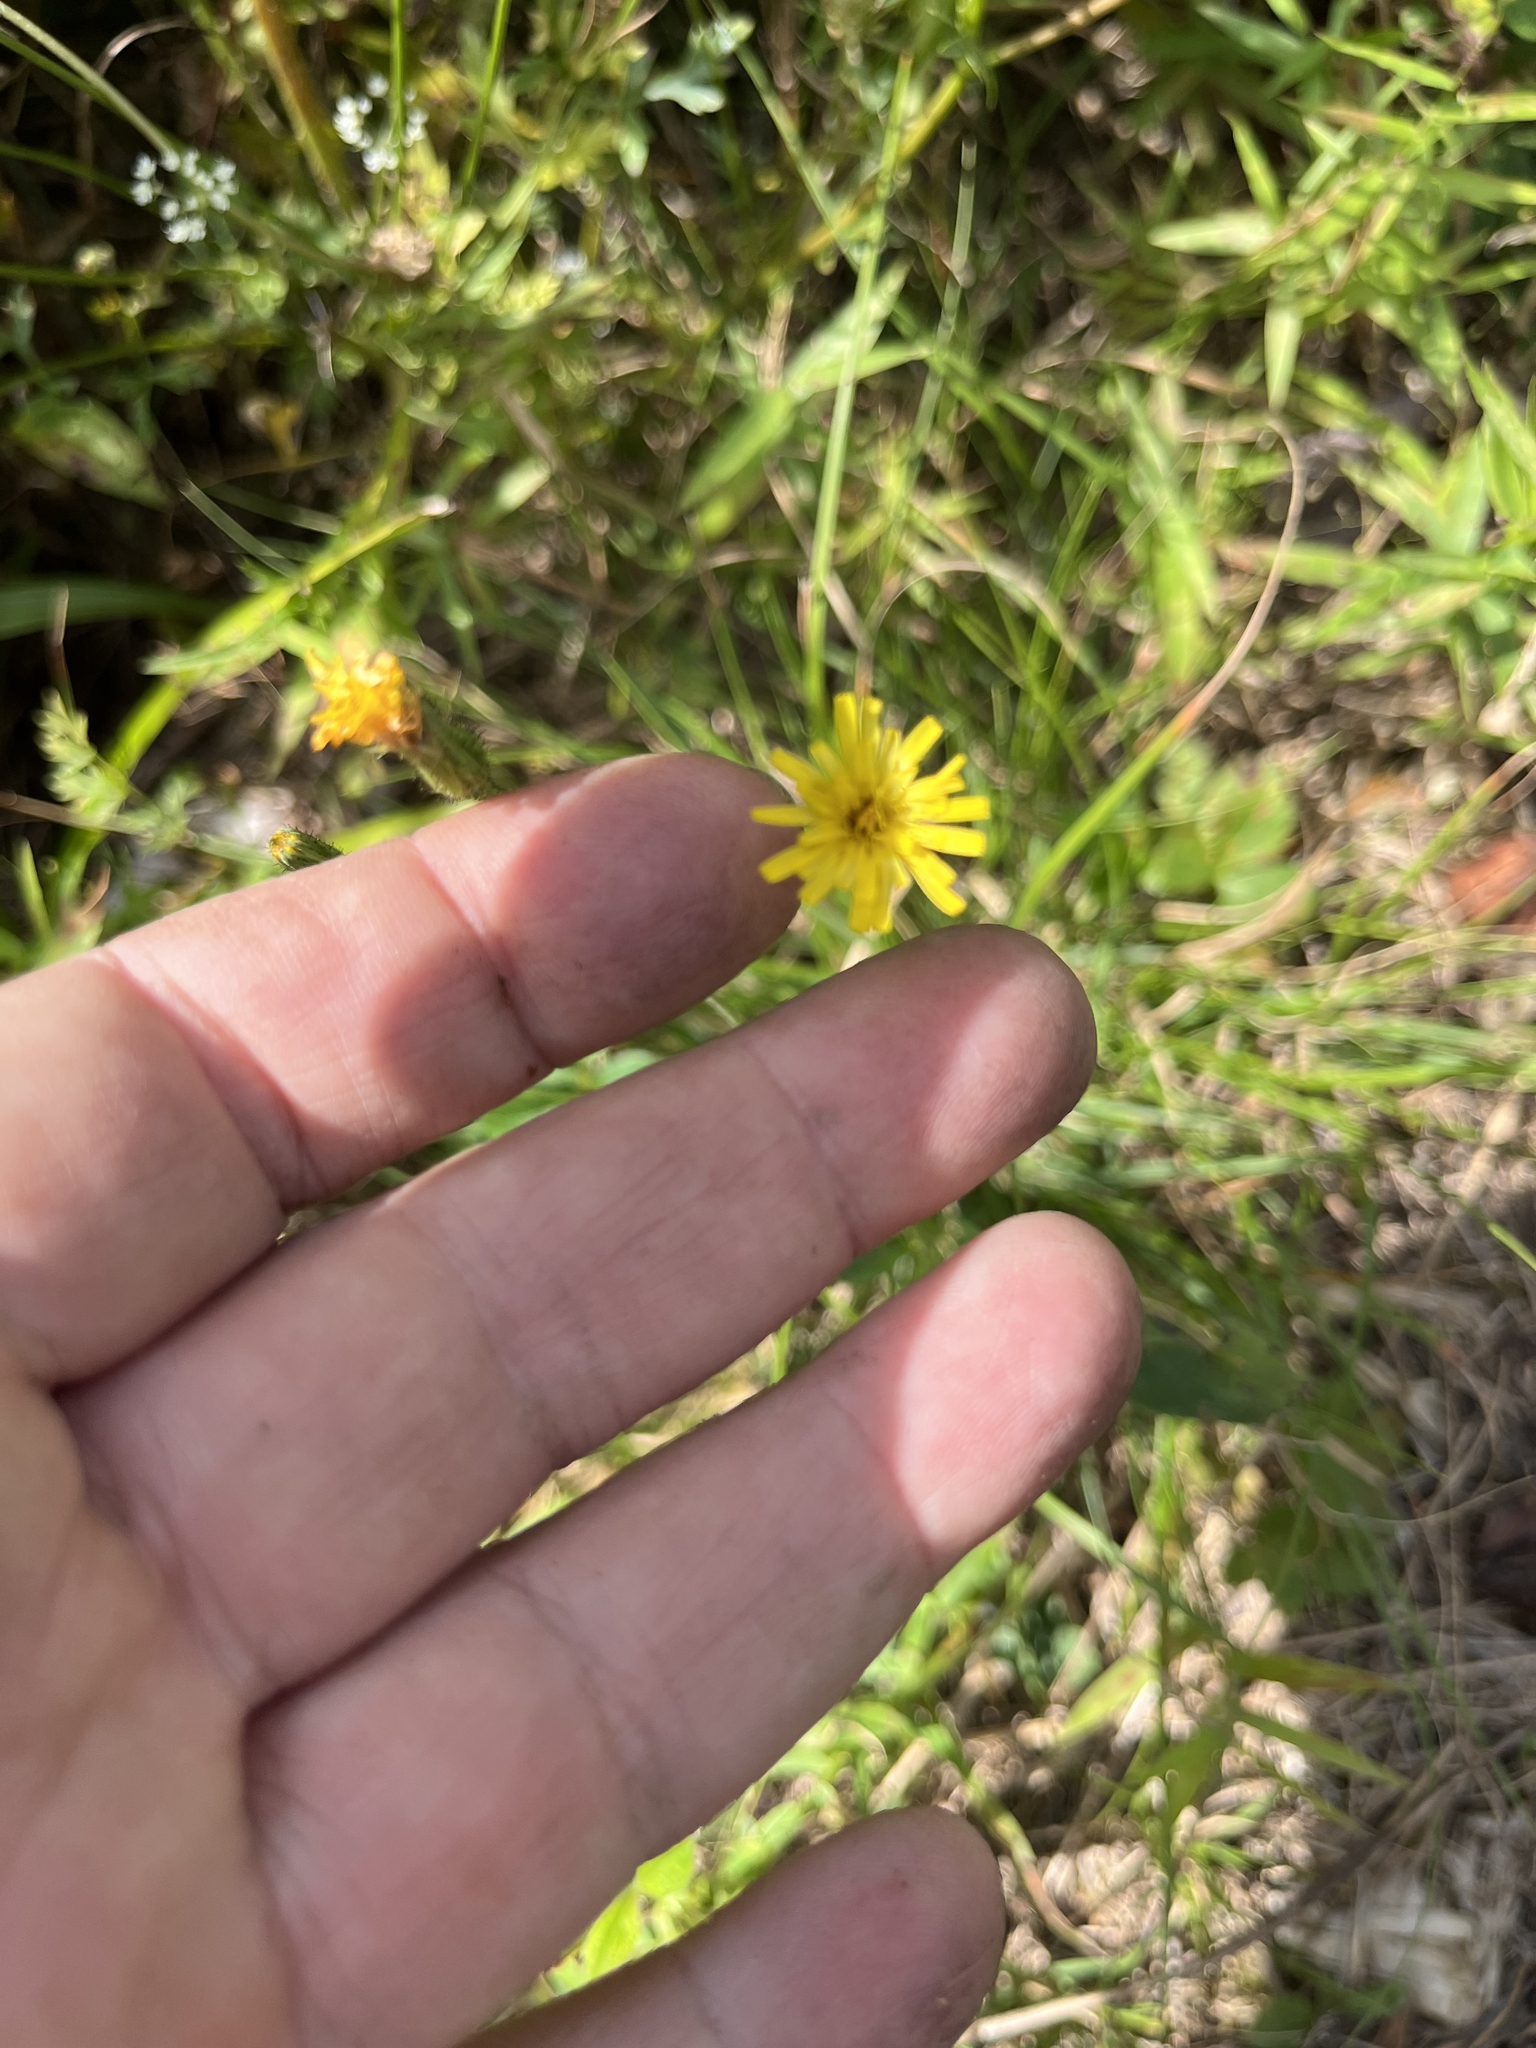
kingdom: Plantae
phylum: Tracheophyta
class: Magnoliopsida
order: Asterales
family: Asteraceae
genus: Hieracium
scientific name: Hieracium lachenalii
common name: Common hawkweed
